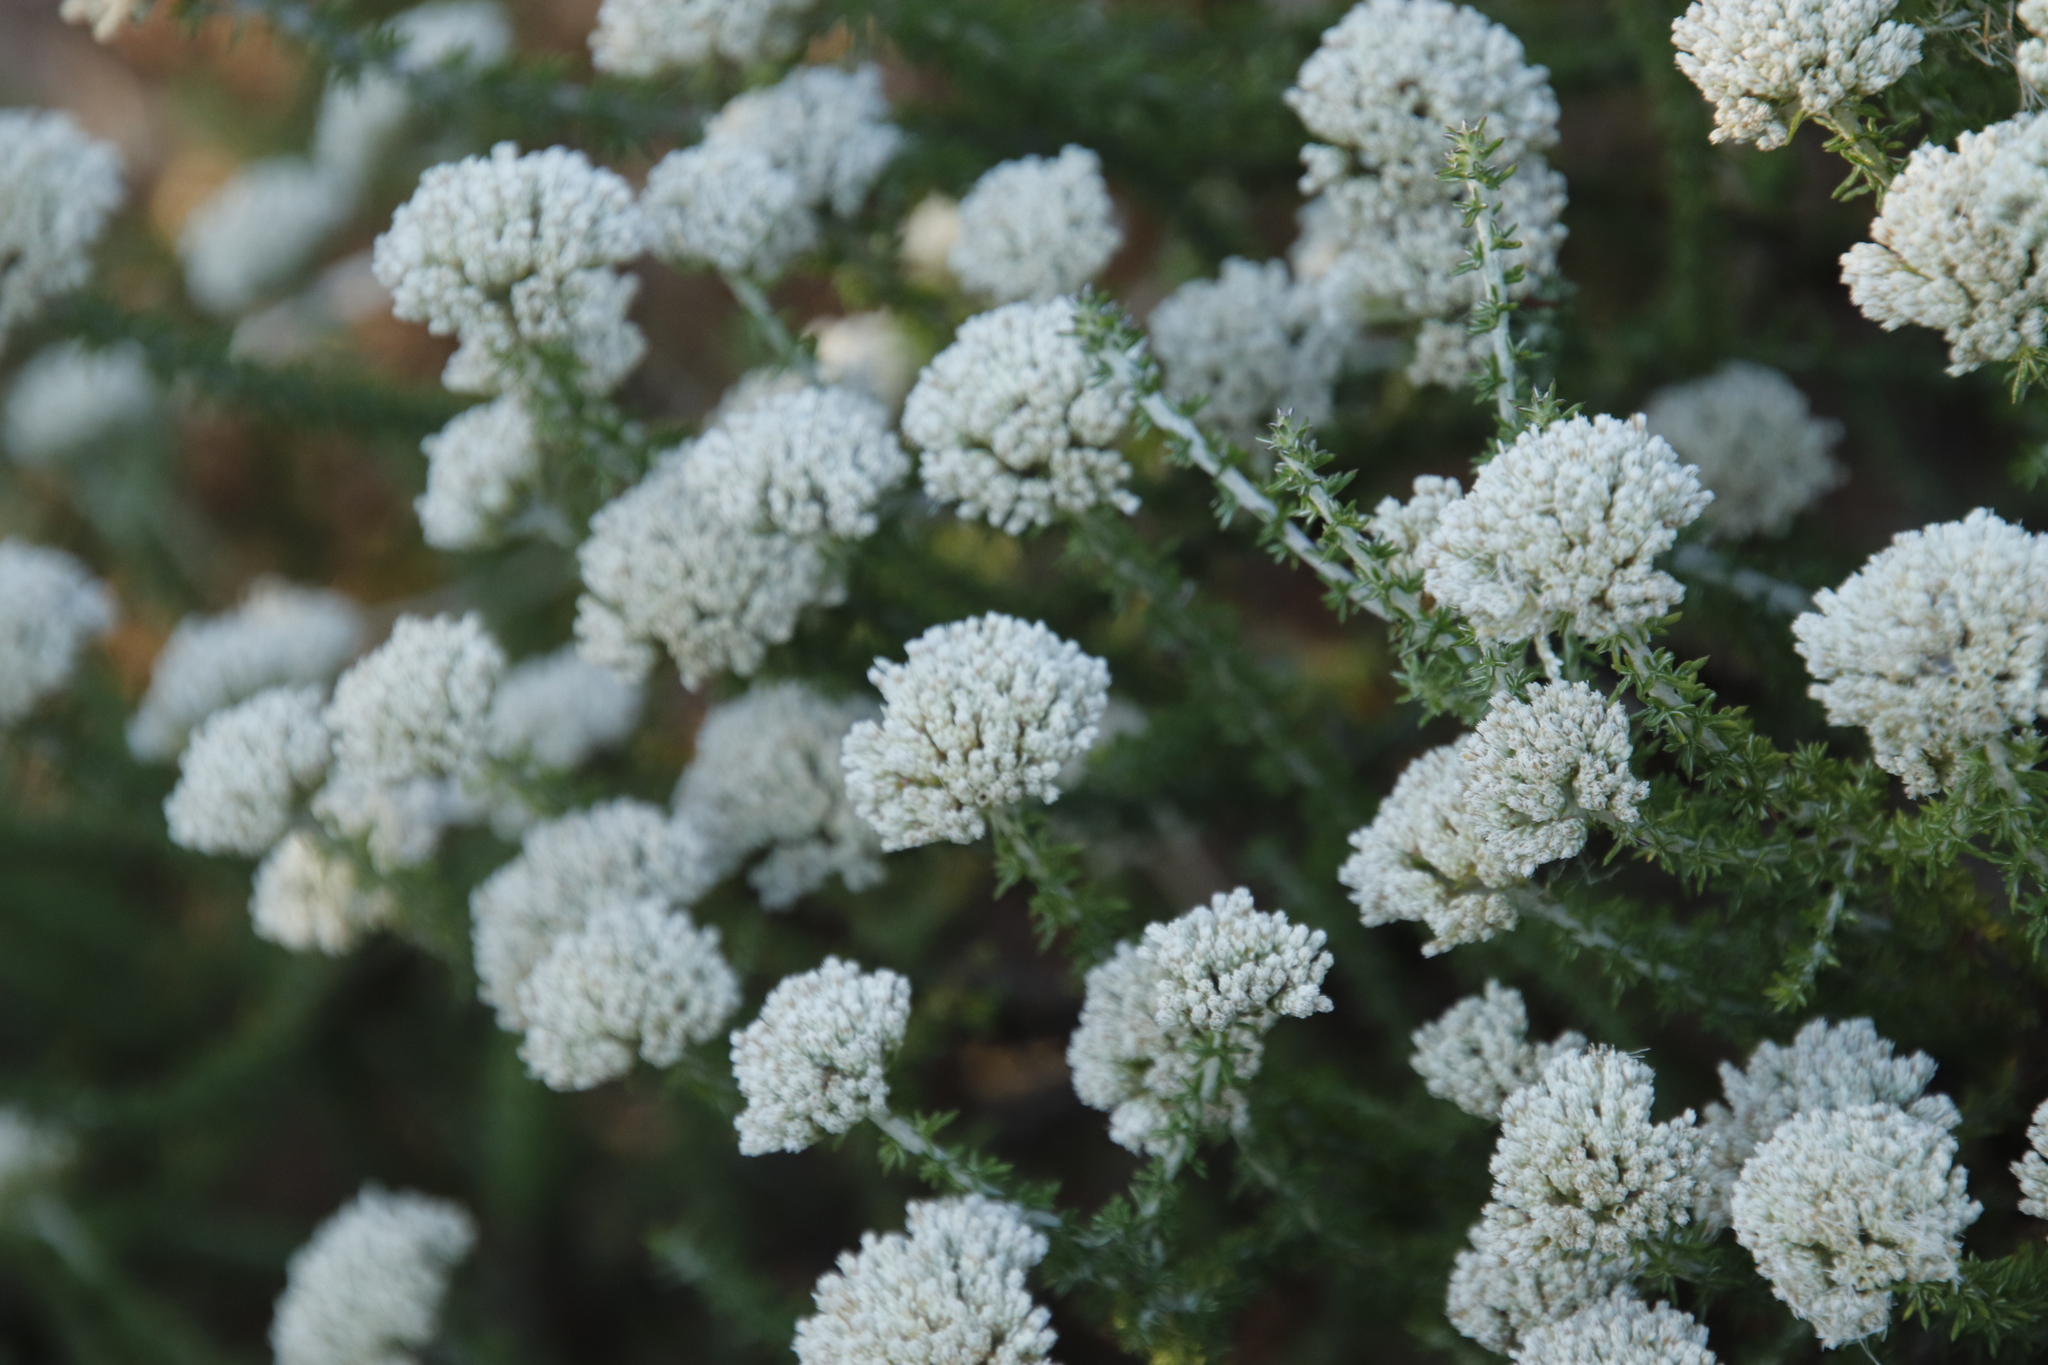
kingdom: Plantae
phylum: Tracheophyta
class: Magnoliopsida
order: Asterales
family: Asteraceae
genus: Metalasia
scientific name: Metalasia brevifolia
